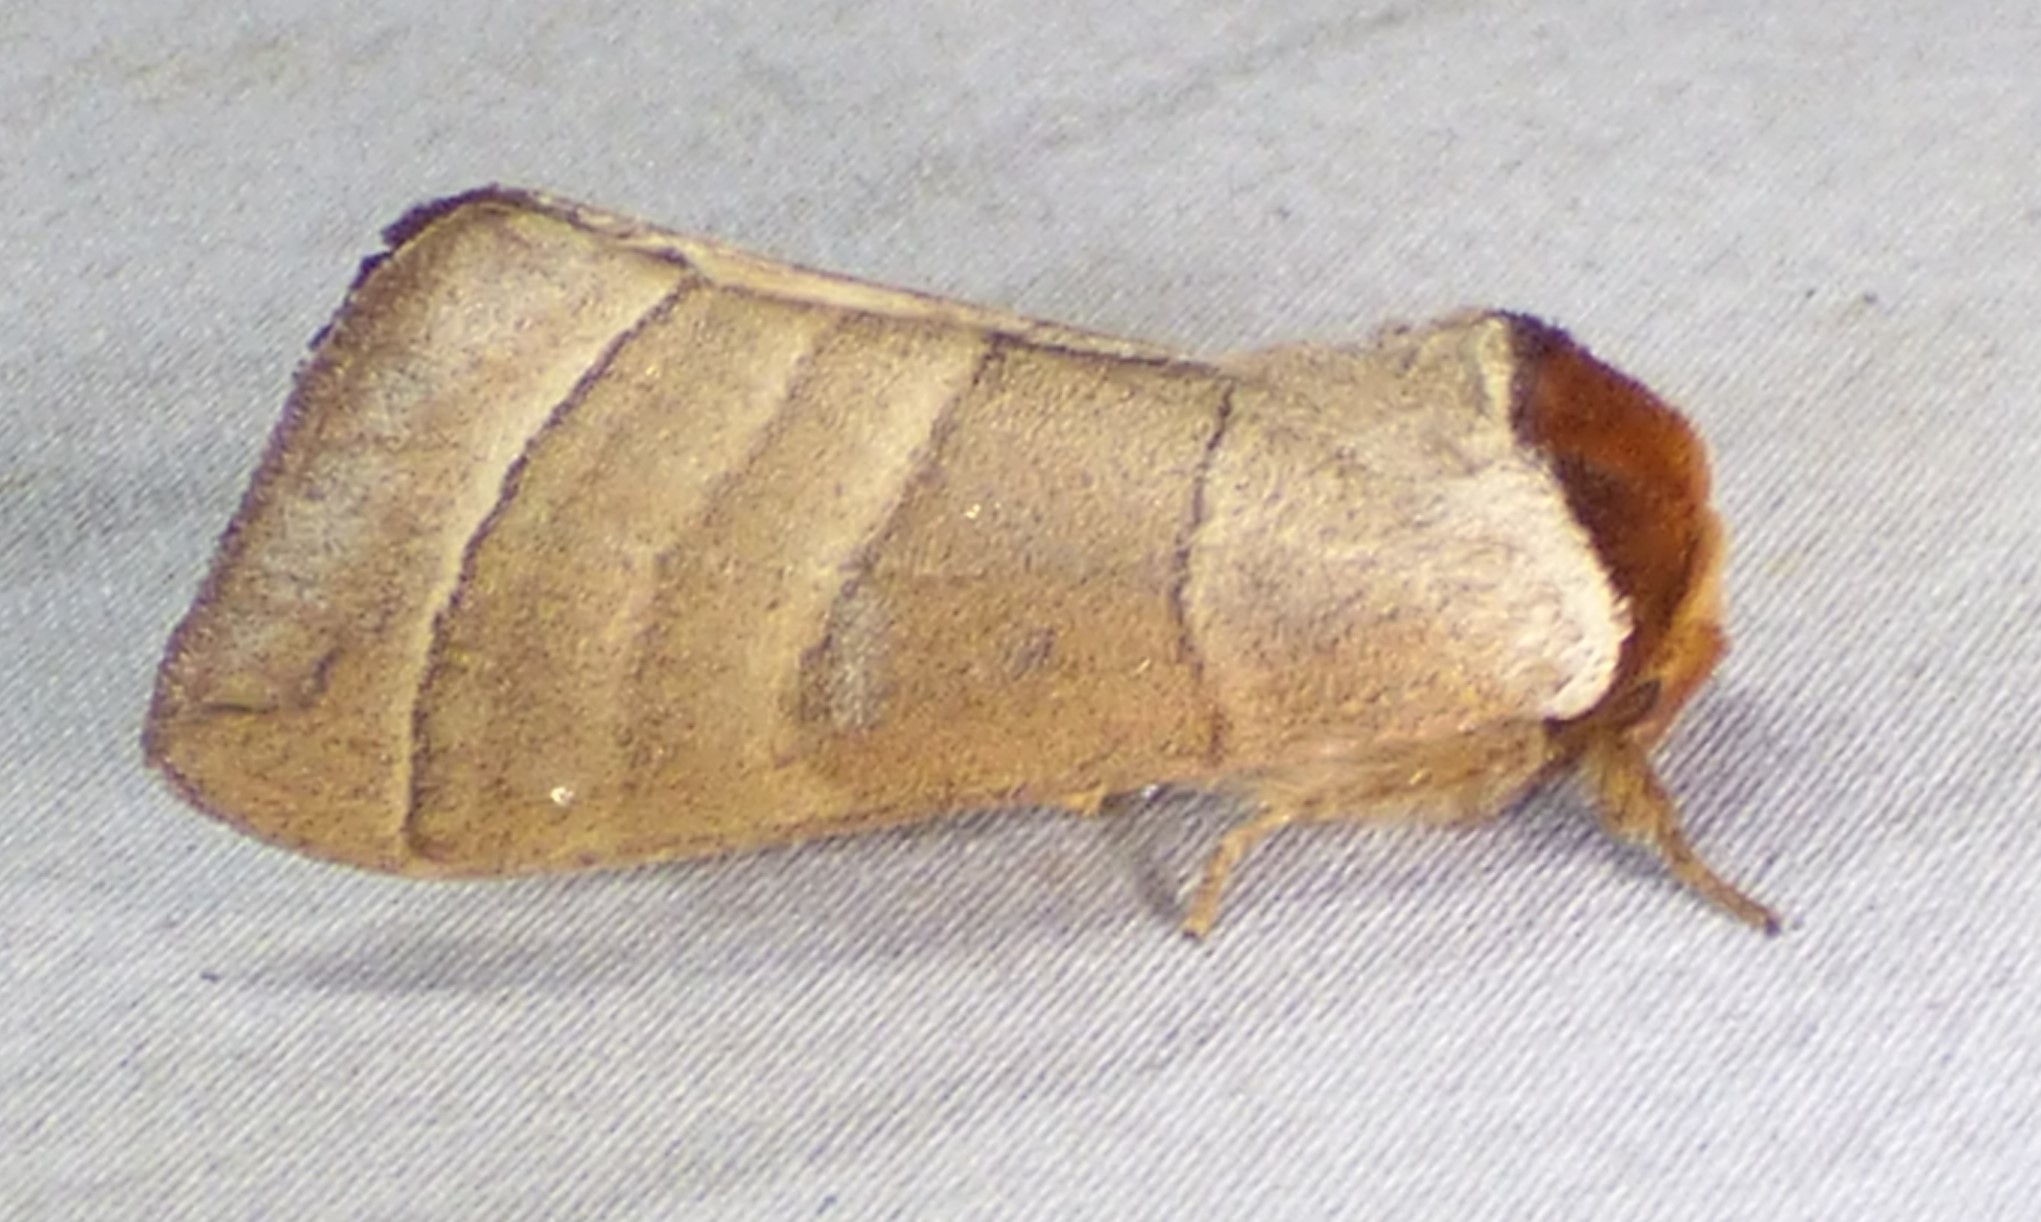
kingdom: Animalia
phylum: Arthropoda
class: Insecta
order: Lepidoptera
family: Notodontidae
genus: Datana
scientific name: Datana integerrima
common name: Walnut caterpillar
